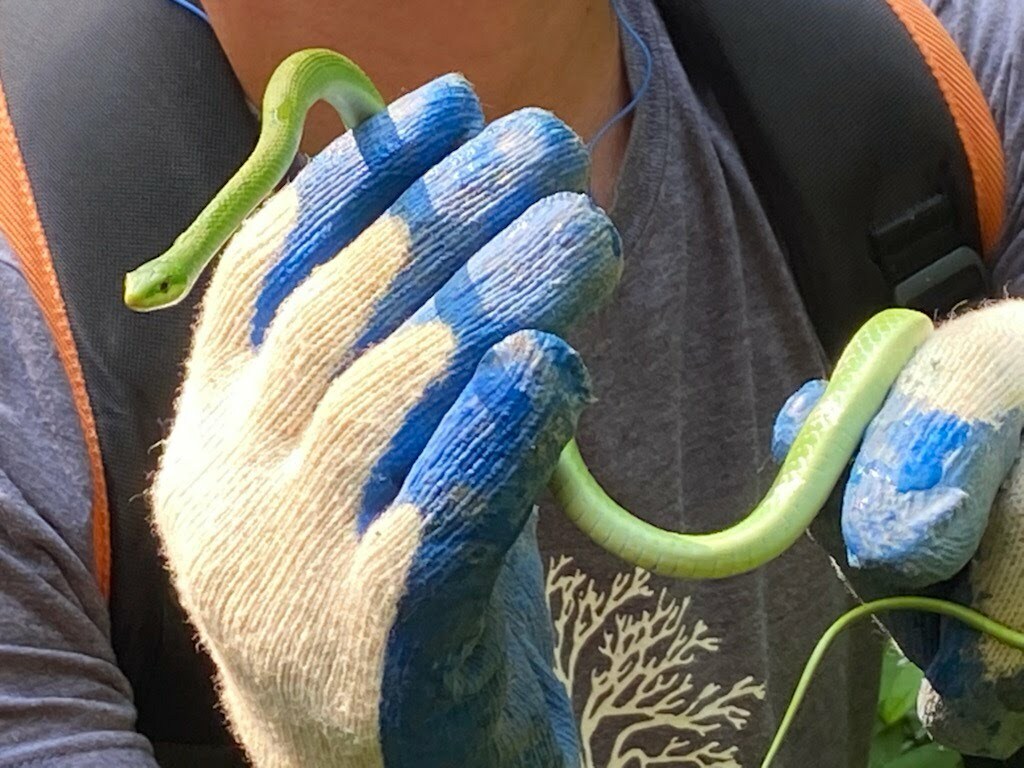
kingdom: Animalia
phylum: Chordata
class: Squamata
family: Colubridae
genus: Opheodrys
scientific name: Opheodrys aestivus
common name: Rough greensnake
